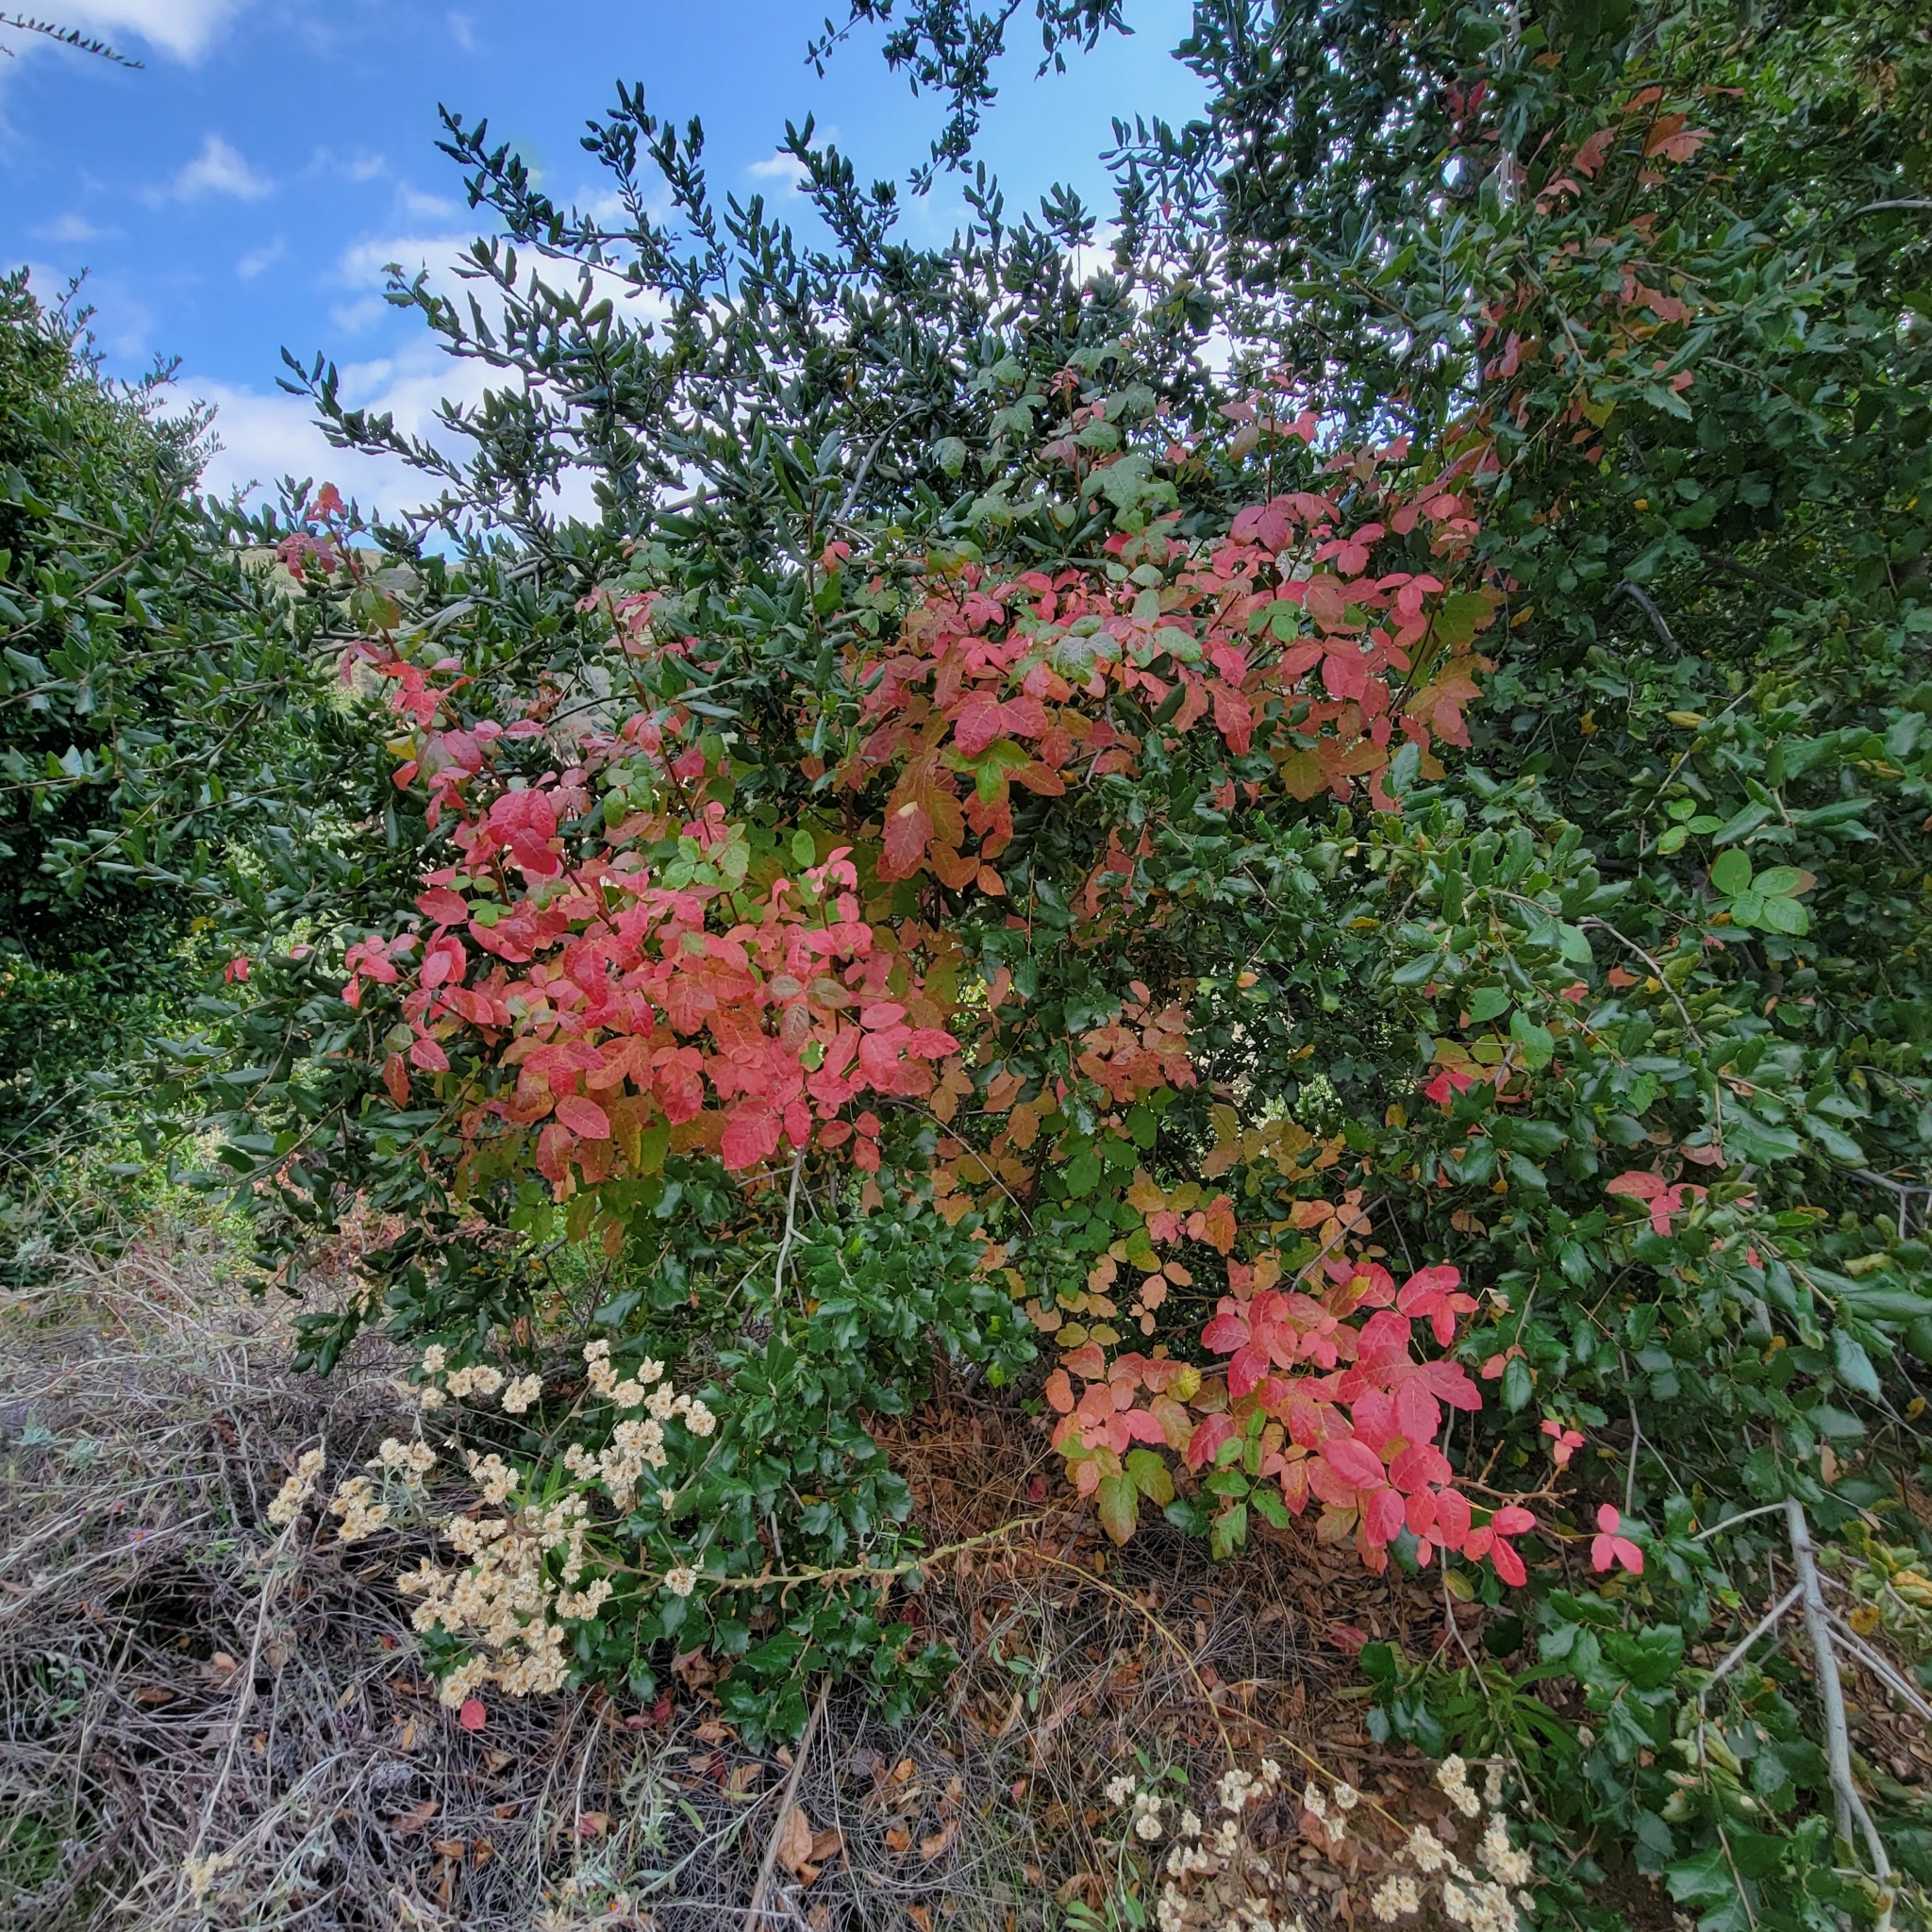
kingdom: Plantae
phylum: Tracheophyta
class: Magnoliopsida
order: Sapindales
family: Anacardiaceae
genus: Toxicodendron
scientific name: Toxicodendron diversilobum
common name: Pacific poison-oak
